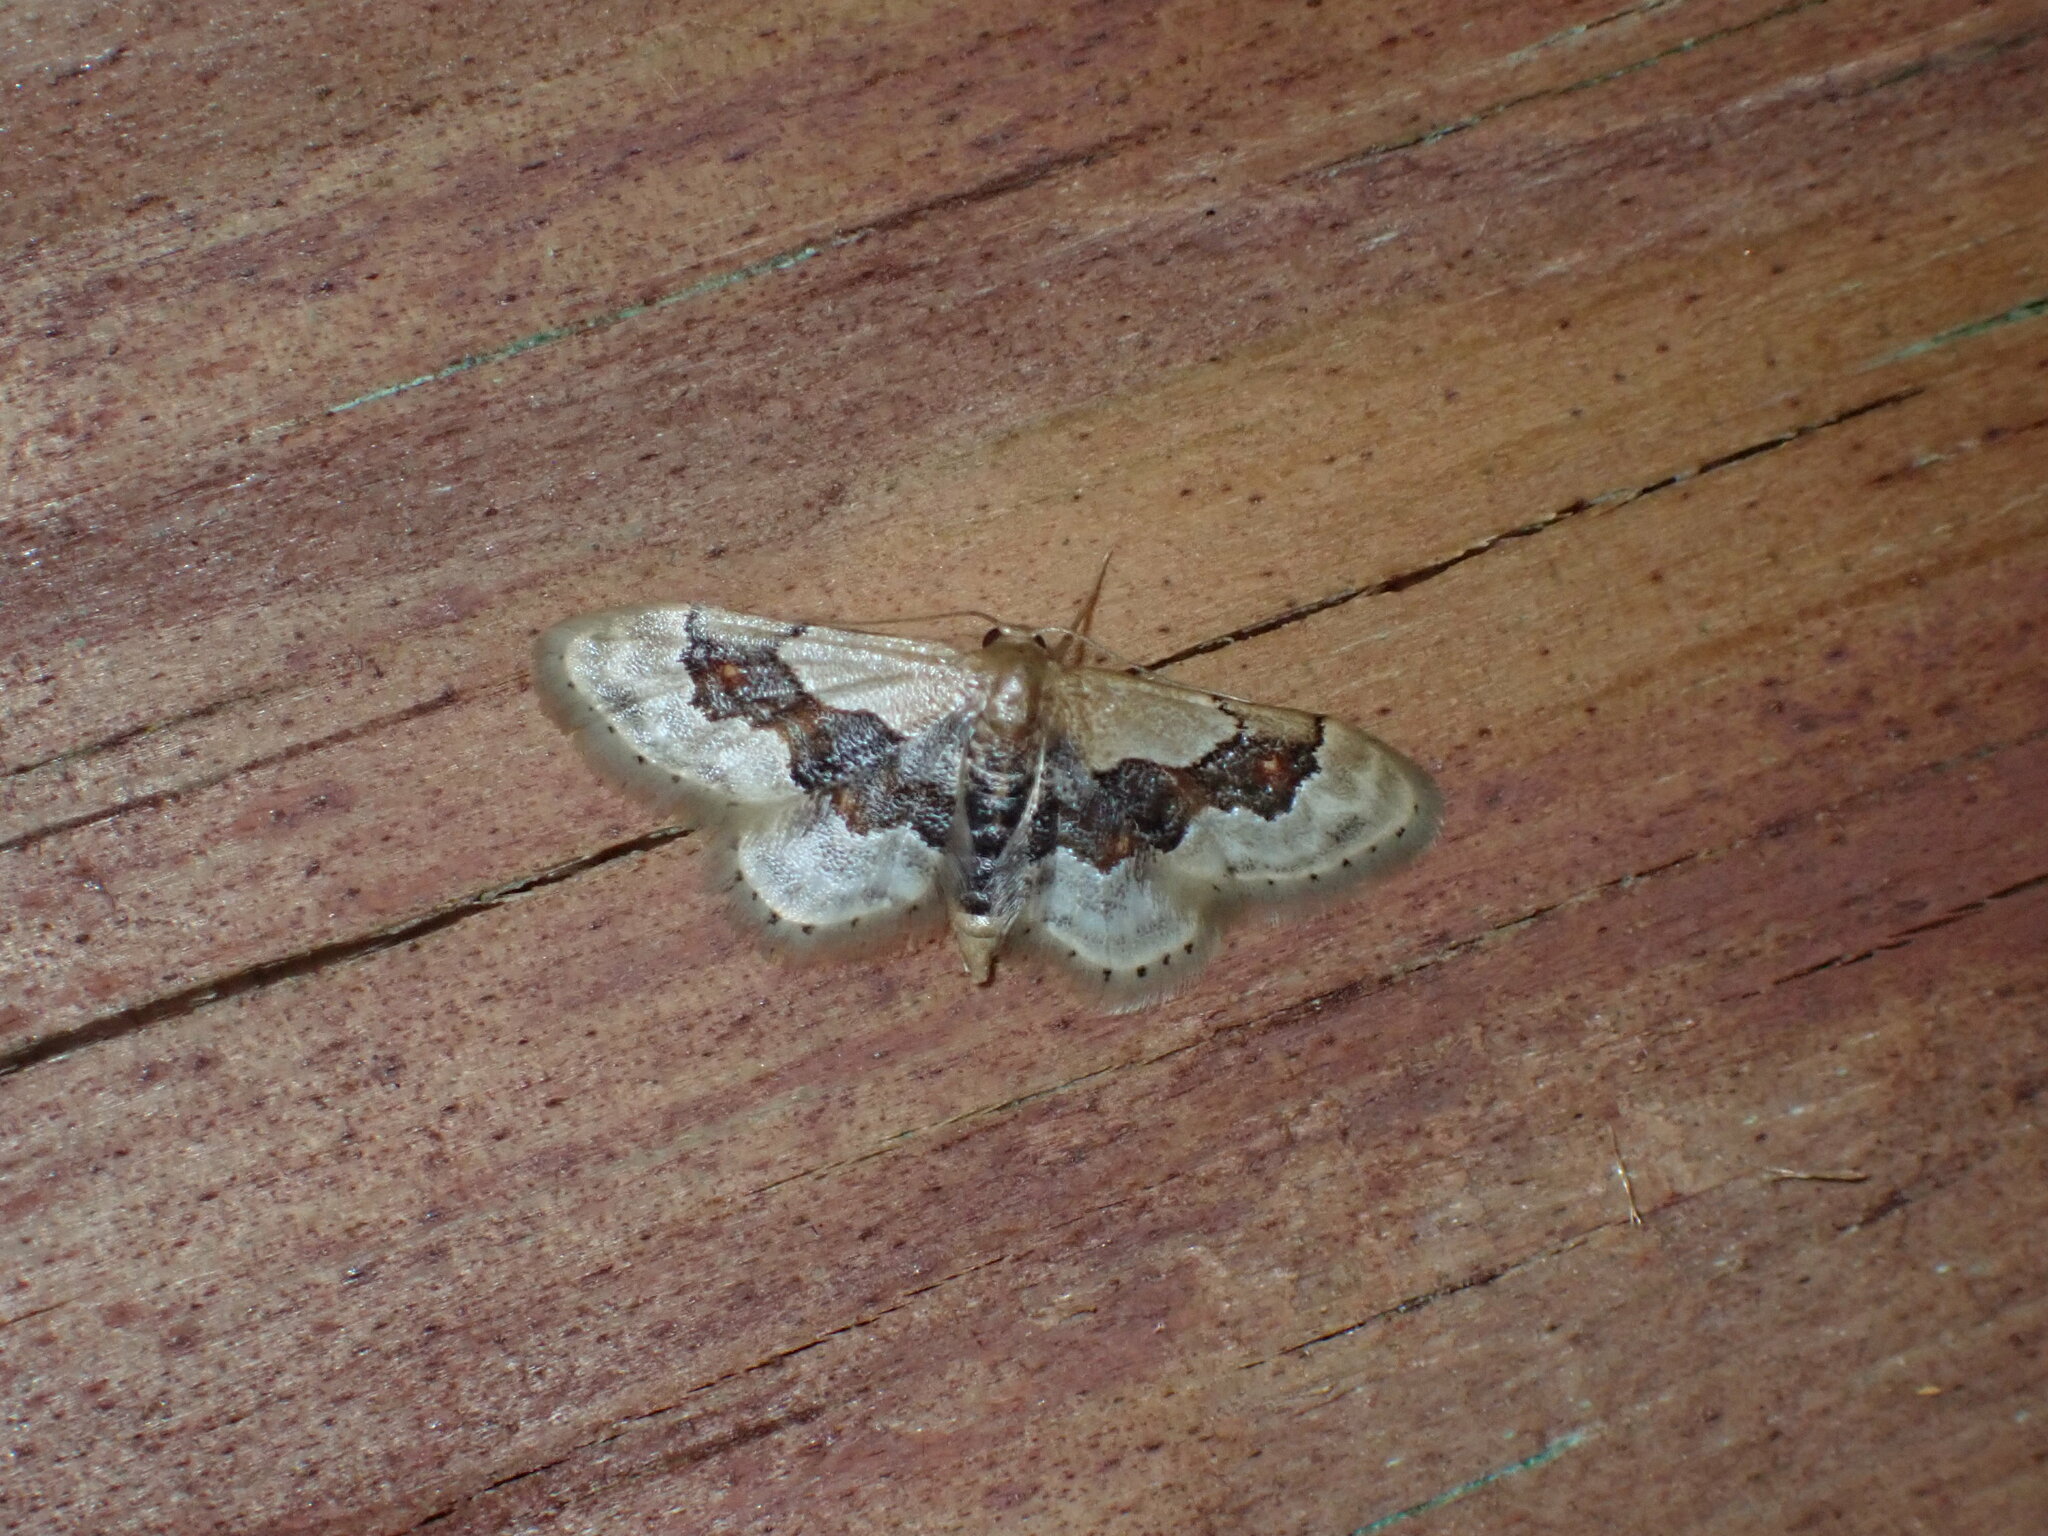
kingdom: Animalia
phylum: Arthropoda
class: Insecta
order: Lepidoptera
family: Geometridae
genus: Idaea
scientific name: Idaea gemmata
